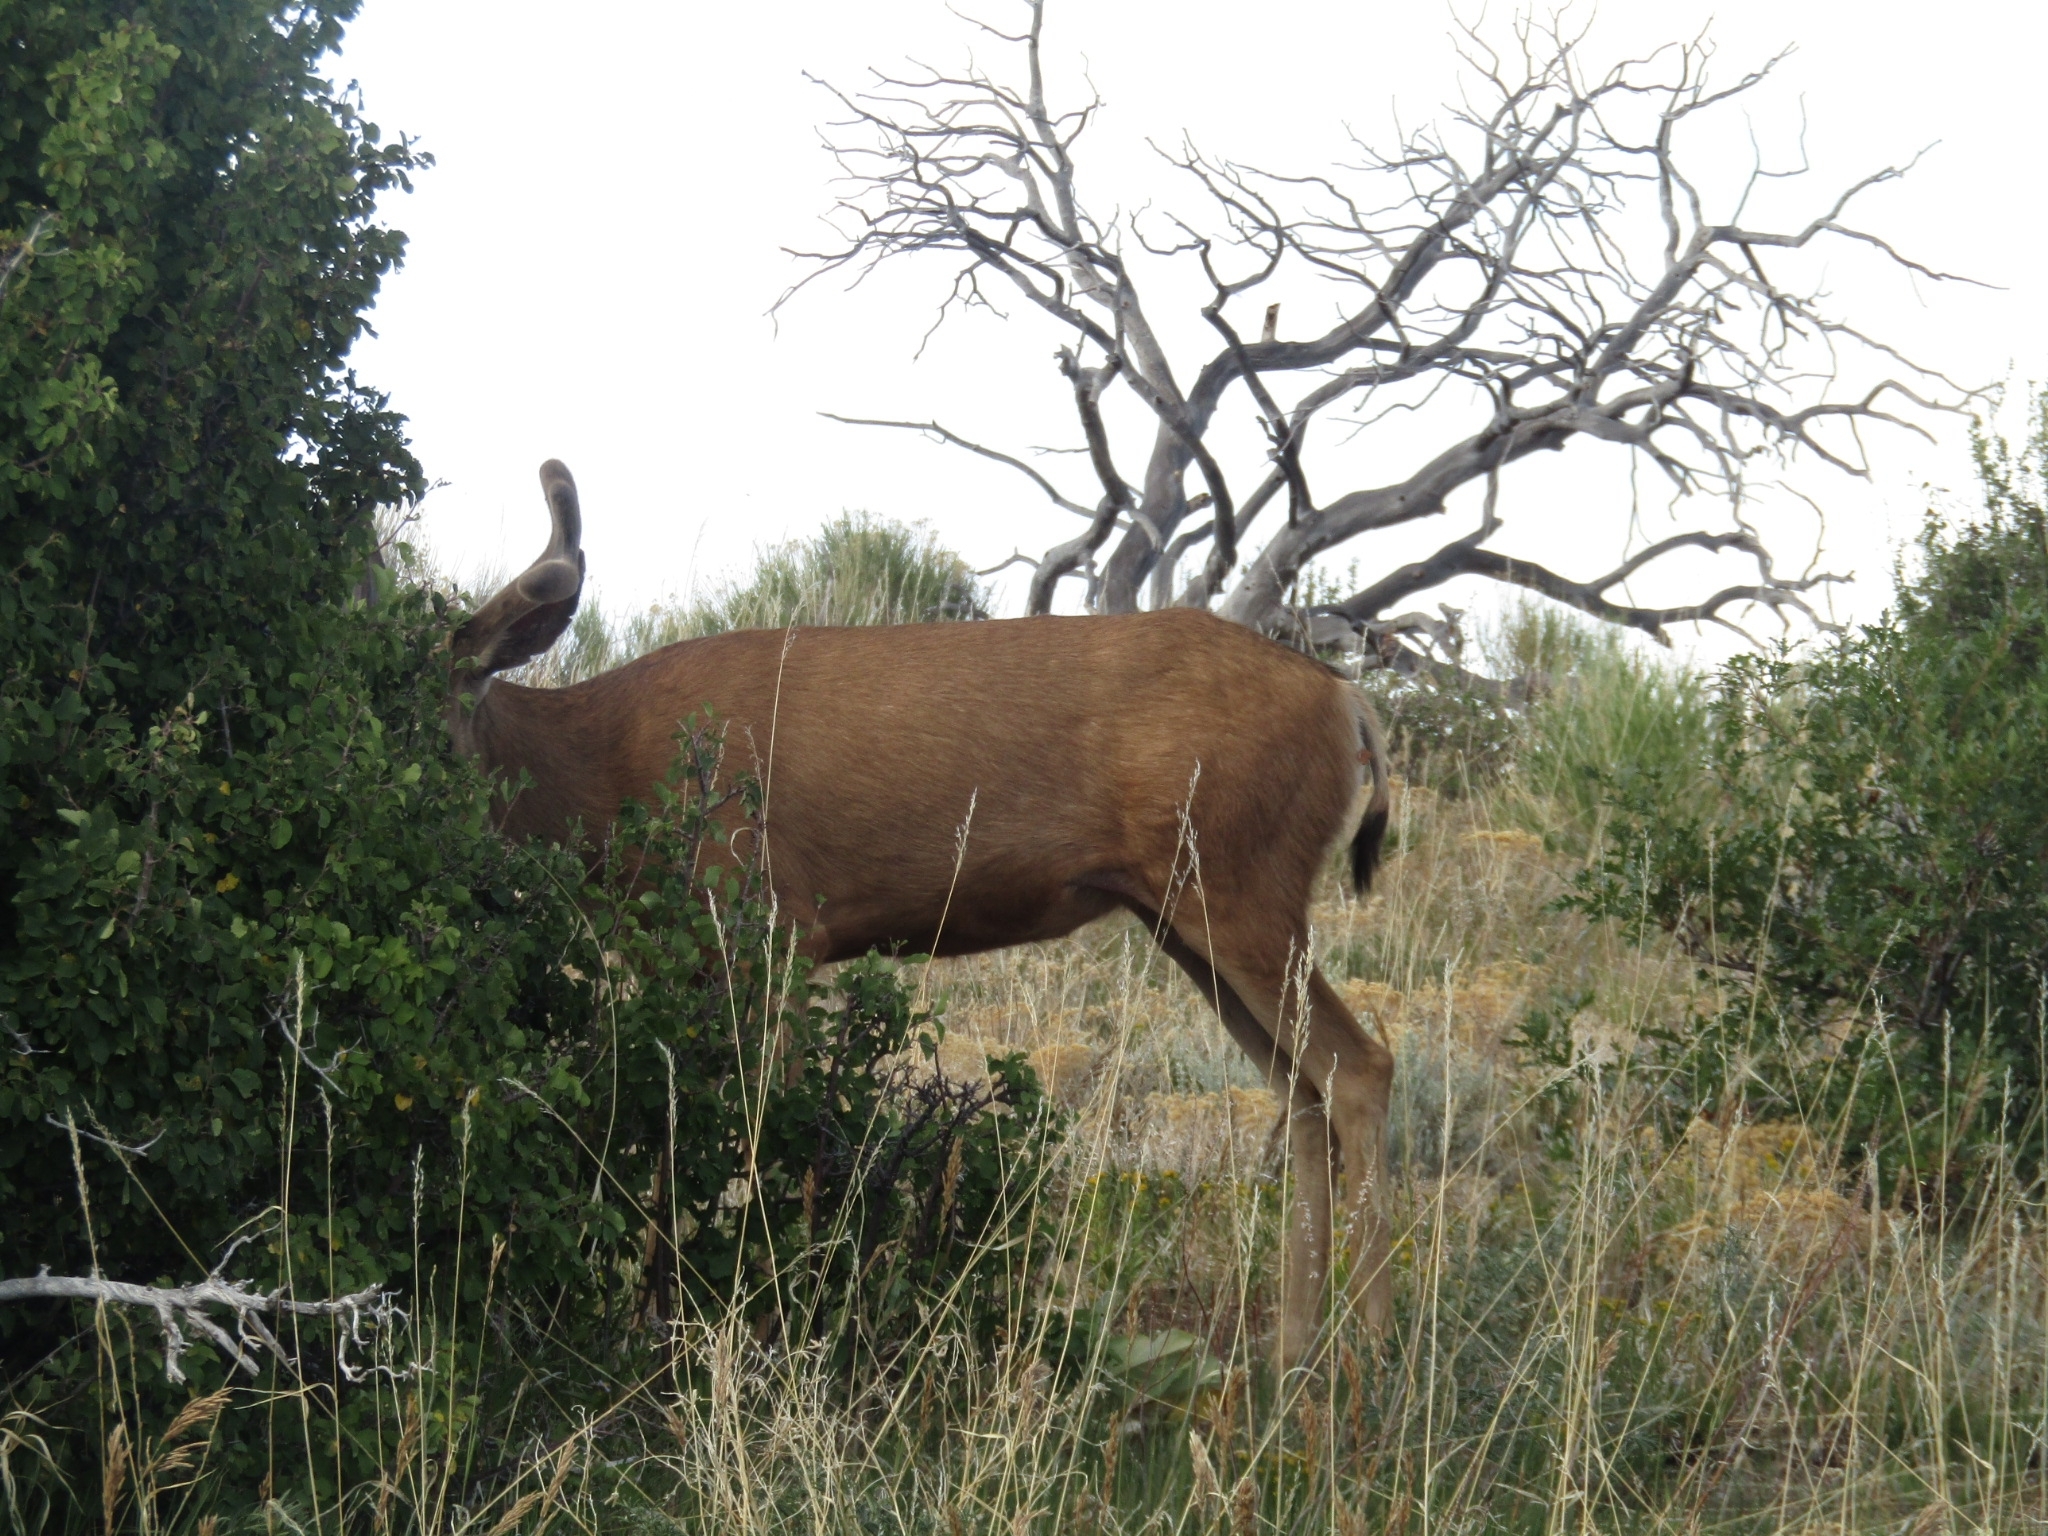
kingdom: Animalia
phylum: Chordata
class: Mammalia
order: Artiodactyla
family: Cervidae
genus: Odocoileus
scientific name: Odocoileus hemionus
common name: Mule deer
